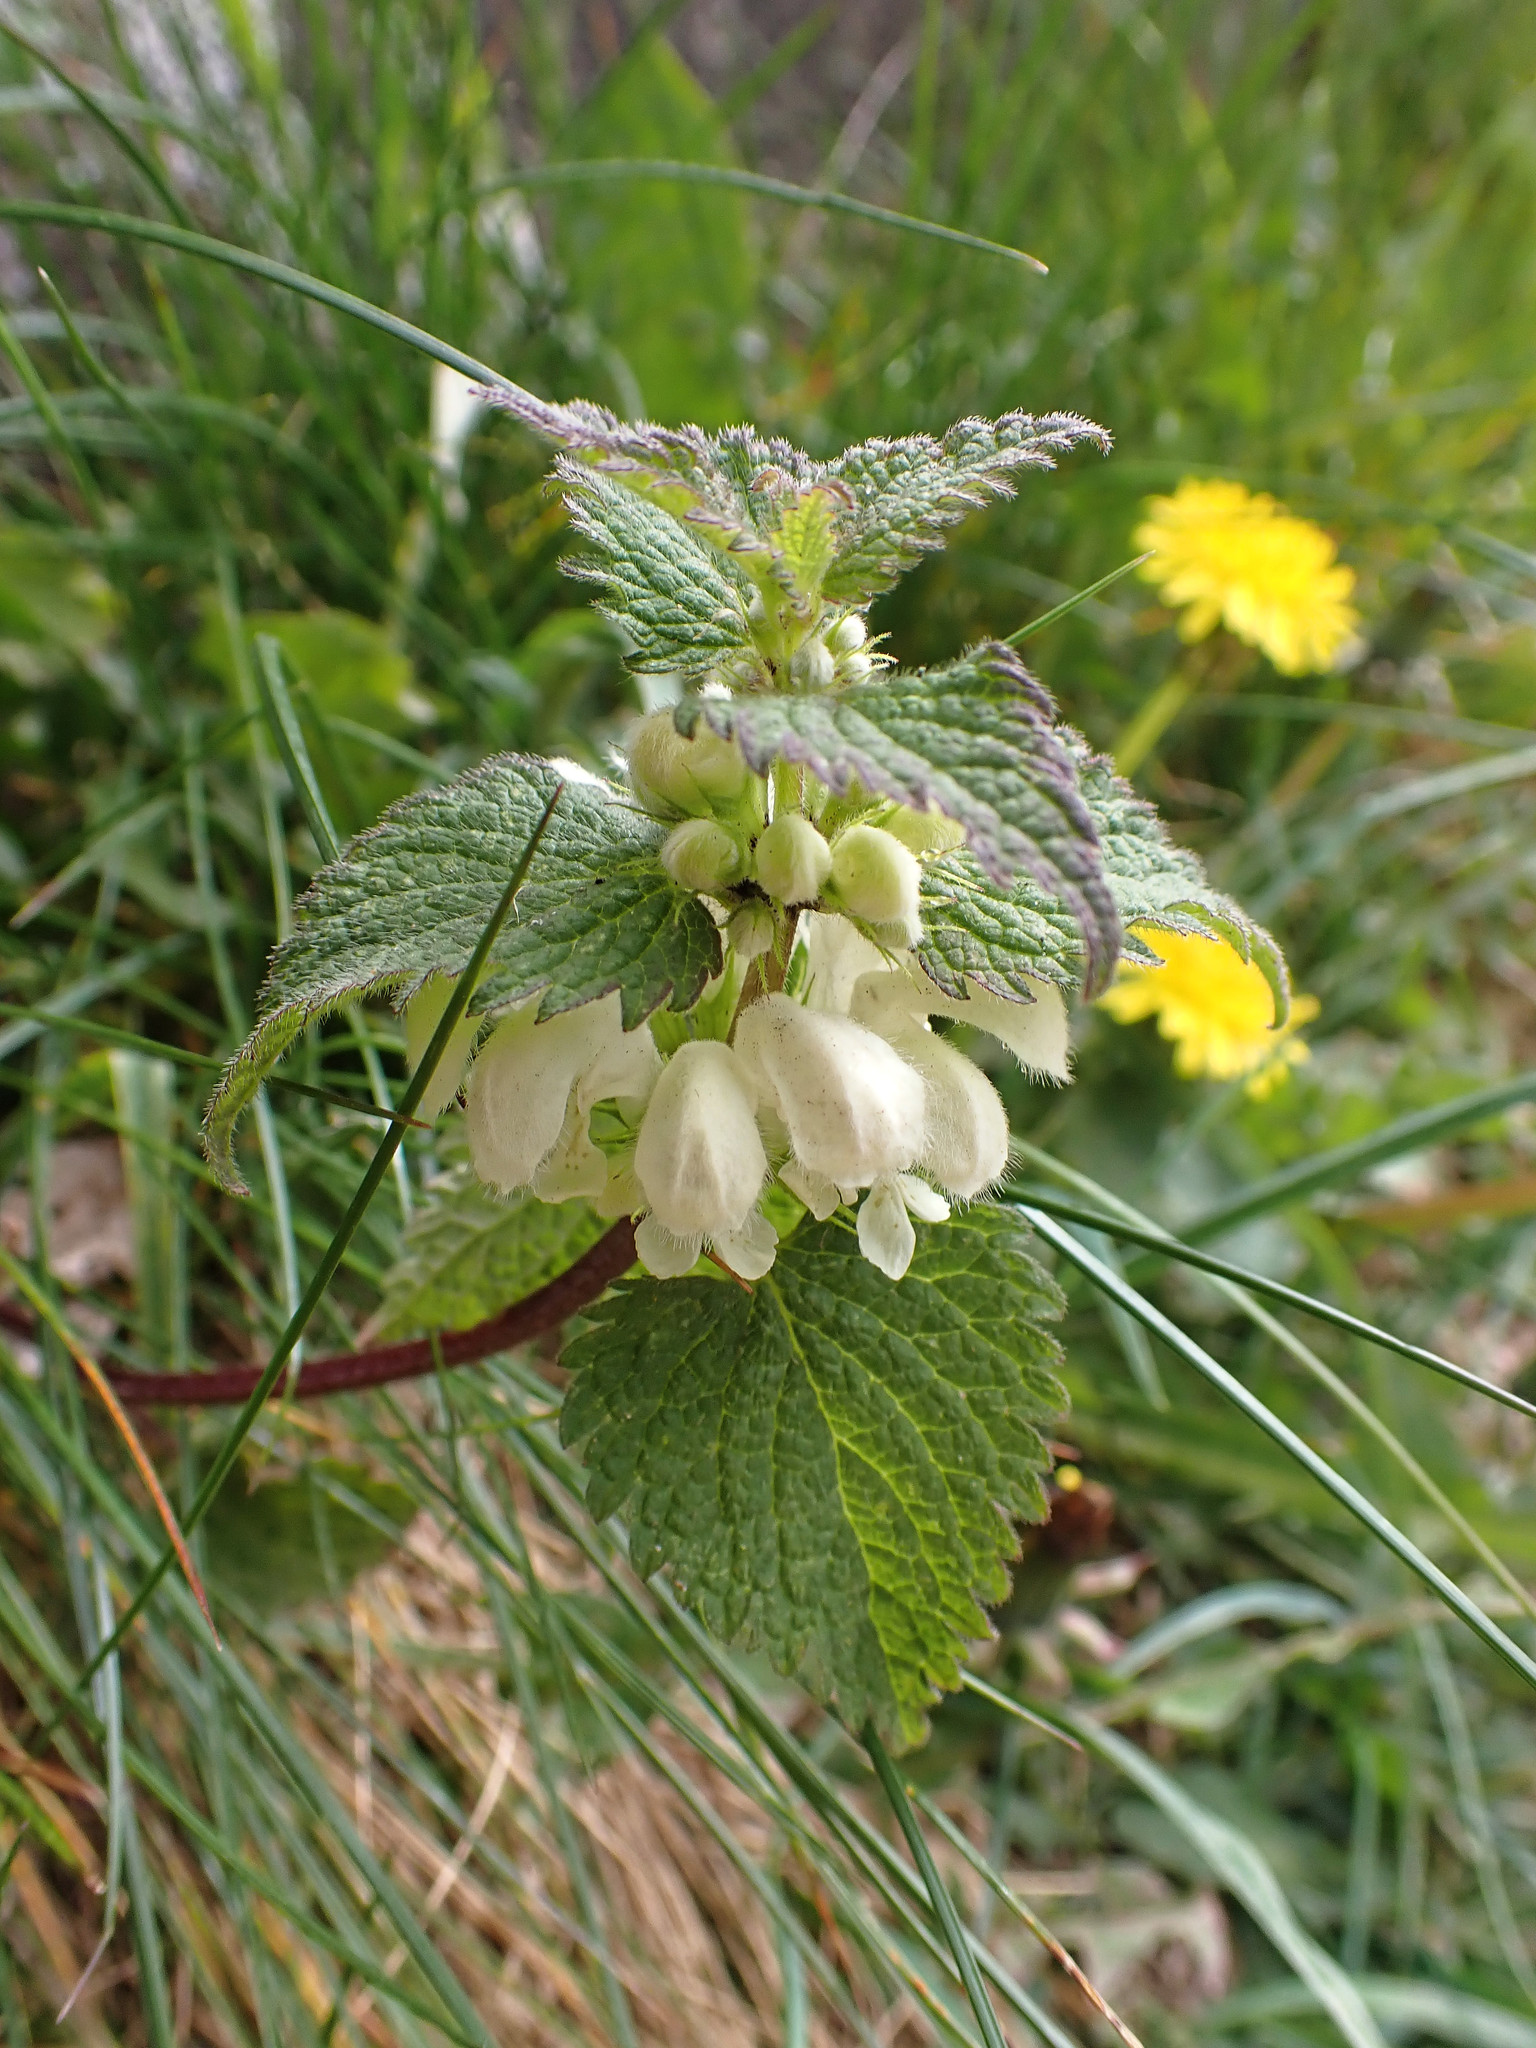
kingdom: Plantae
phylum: Tracheophyta
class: Magnoliopsida
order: Lamiales
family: Lamiaceae
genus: Lamium
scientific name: Lamium album
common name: White dead-nettle
